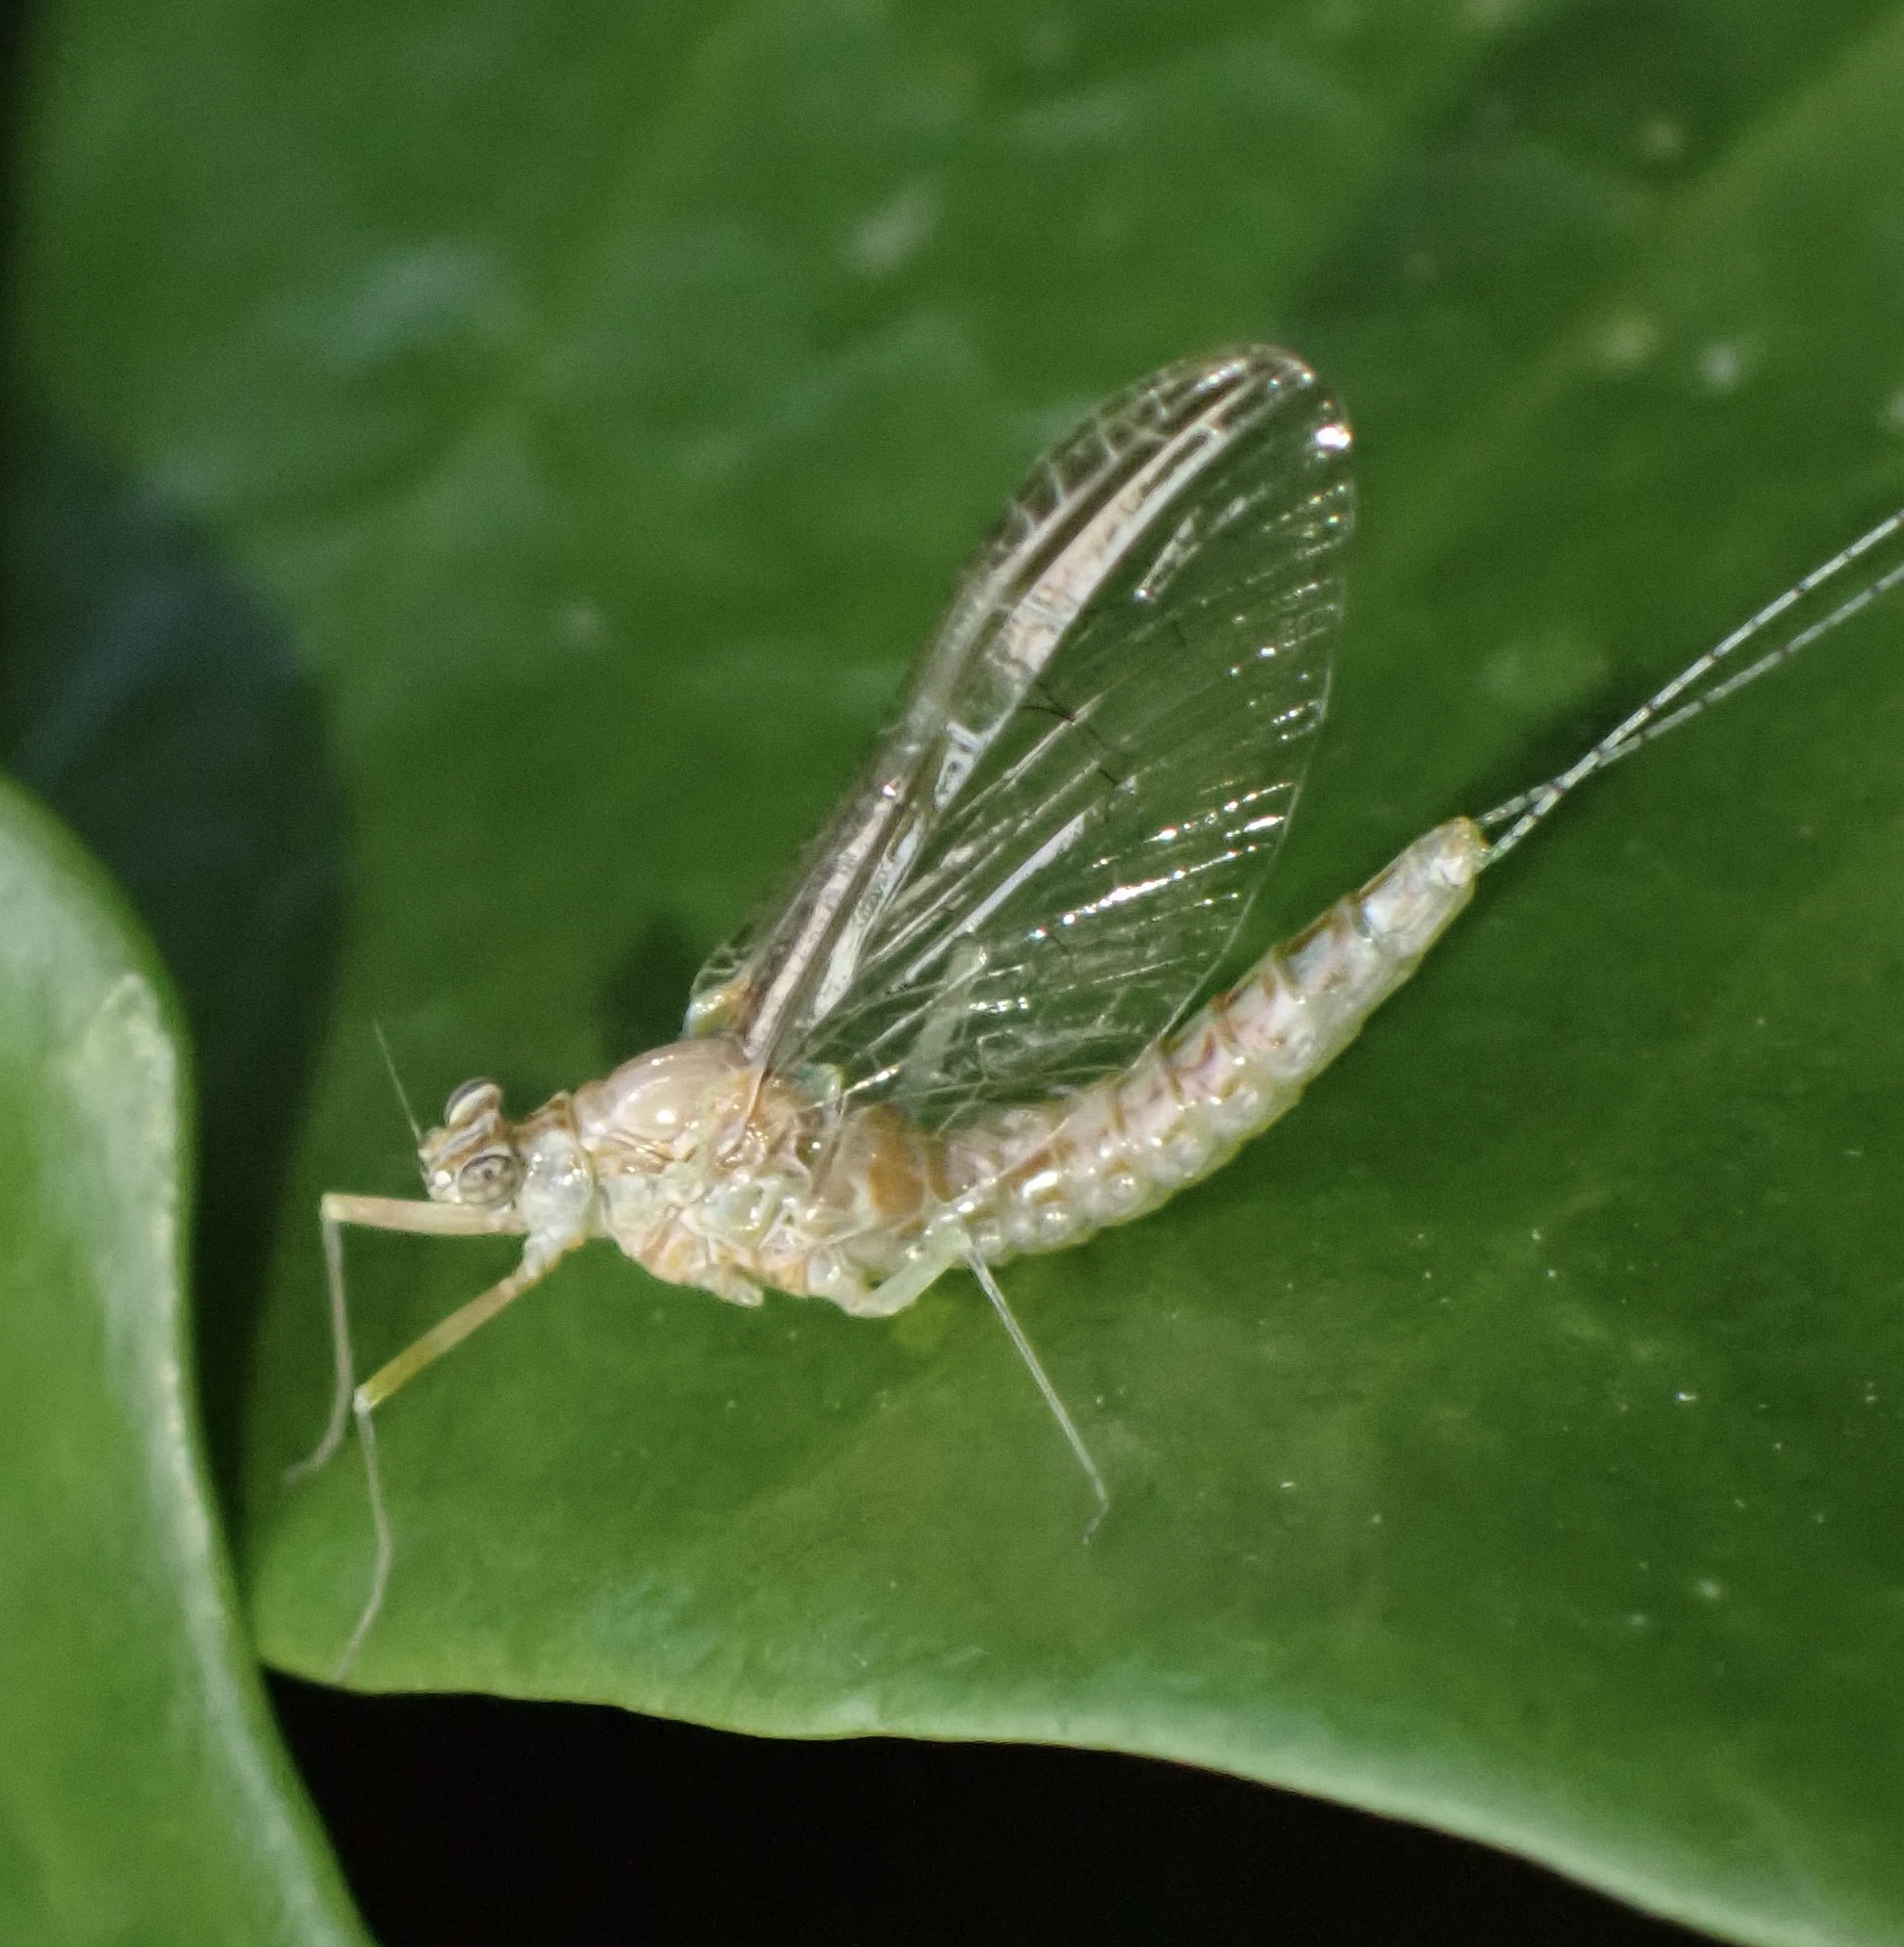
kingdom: Animalia
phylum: Arthropoda
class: Insecta
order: Ephemeroptera
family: Baetidae
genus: Cloeon
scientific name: Cloeon dipterum
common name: Pond olive
